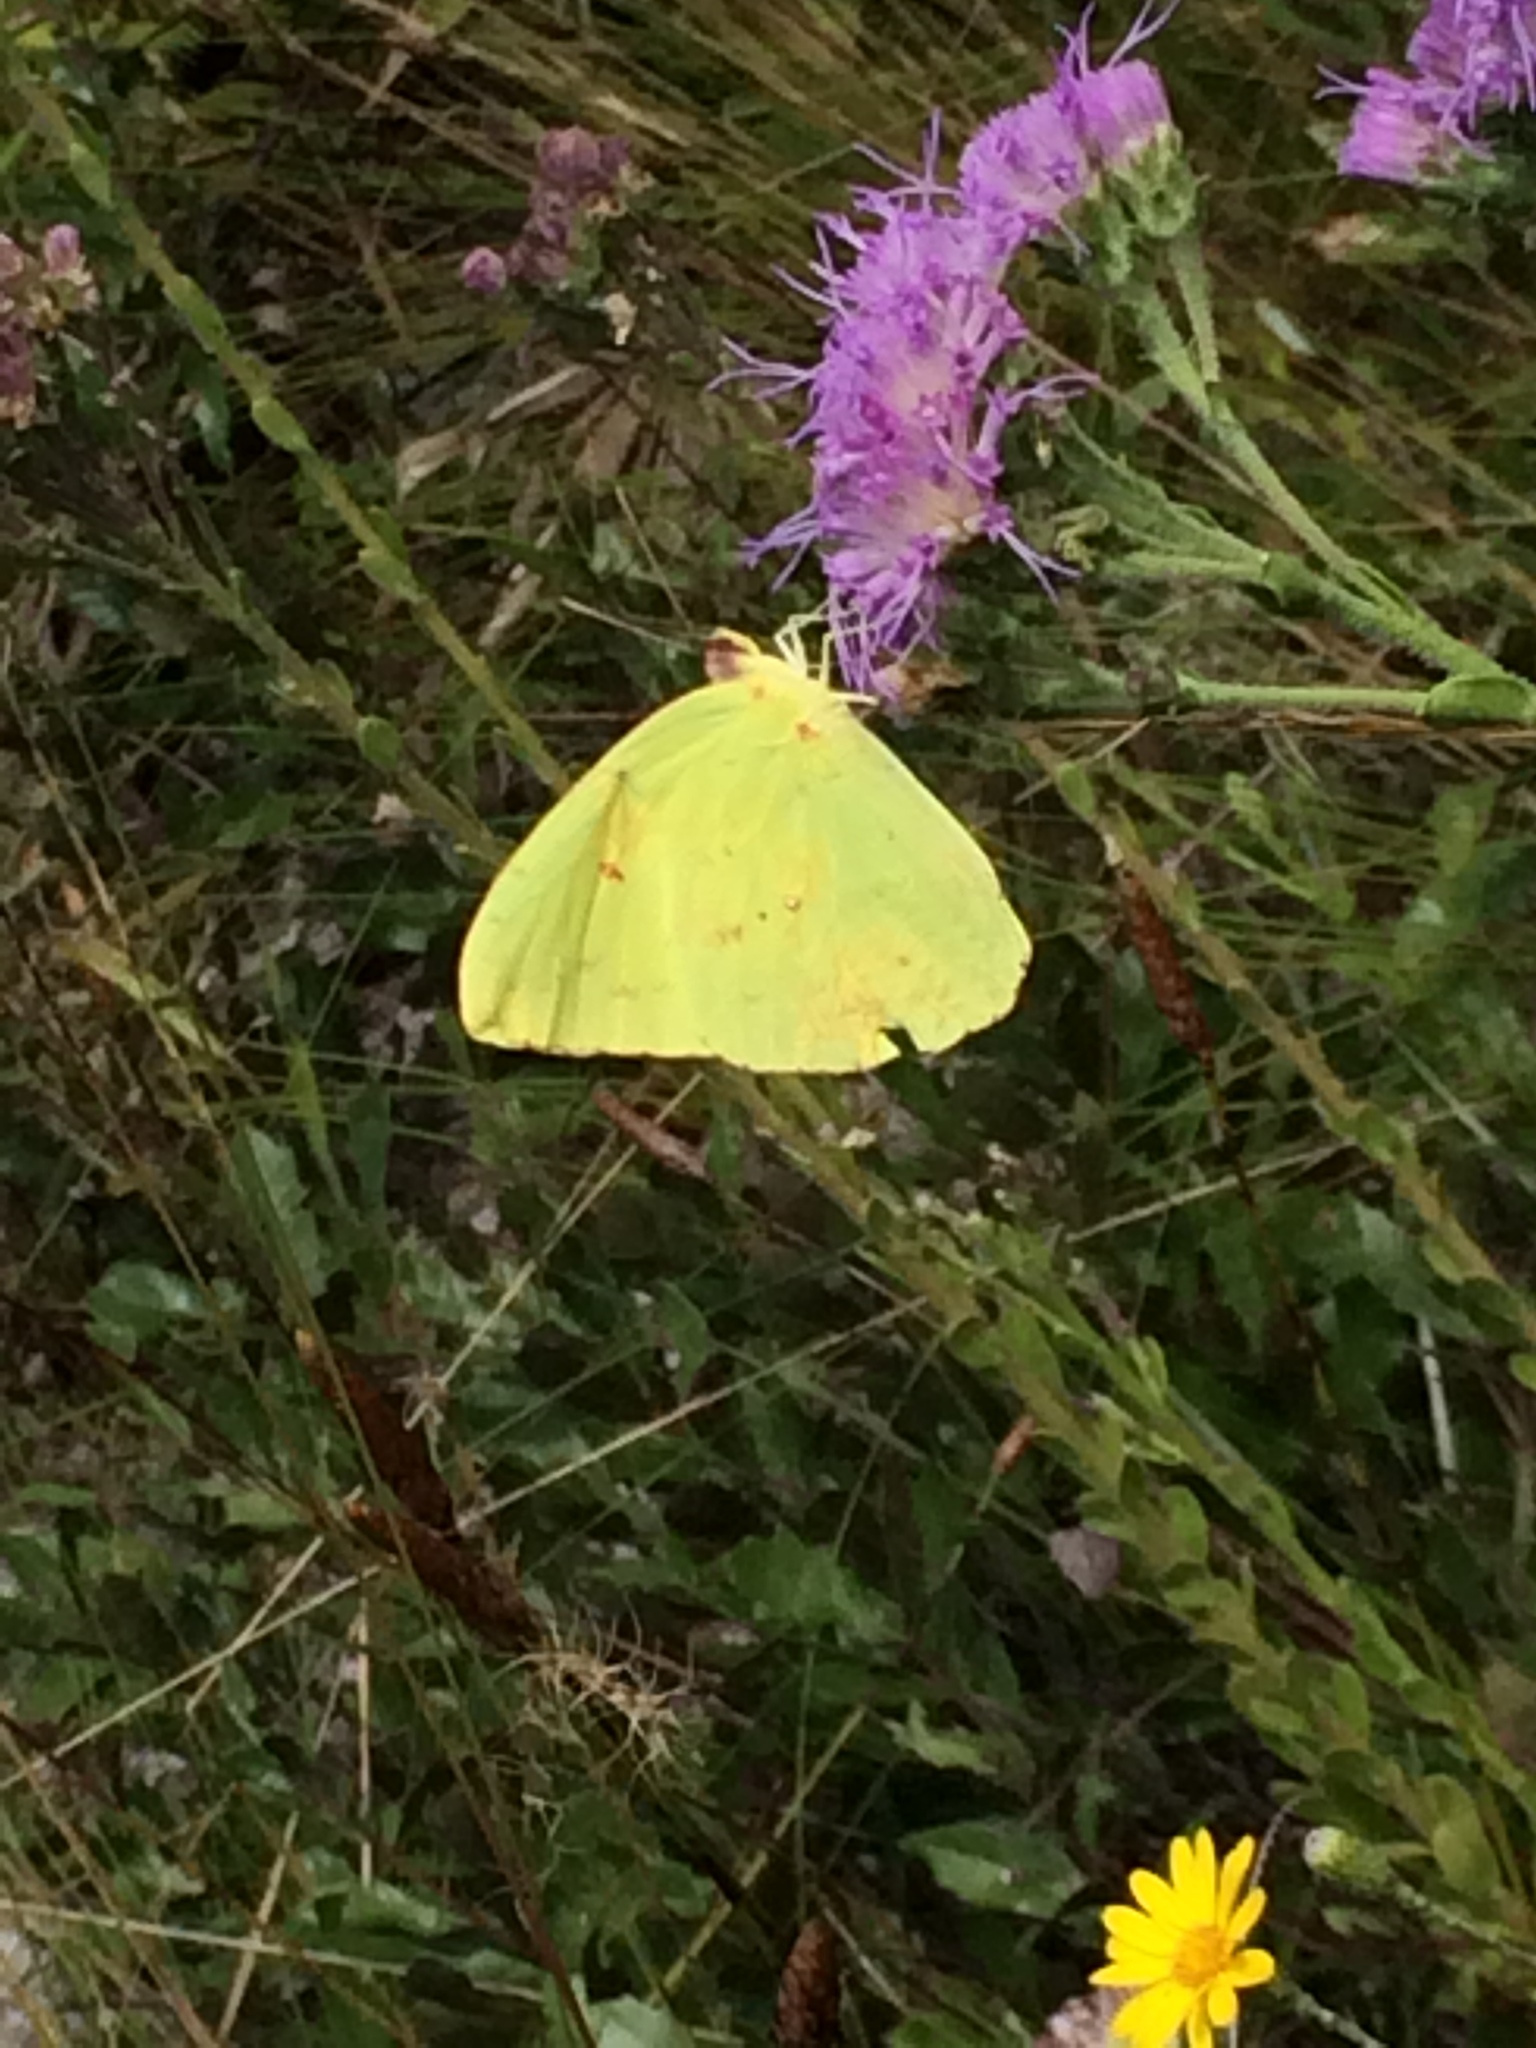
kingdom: Animalia
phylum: Arthropoda
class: Insecta
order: Lepidoptera
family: Pieridae
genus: Phoebis
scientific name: Phoebis sennae
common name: Cloudless sulphur
